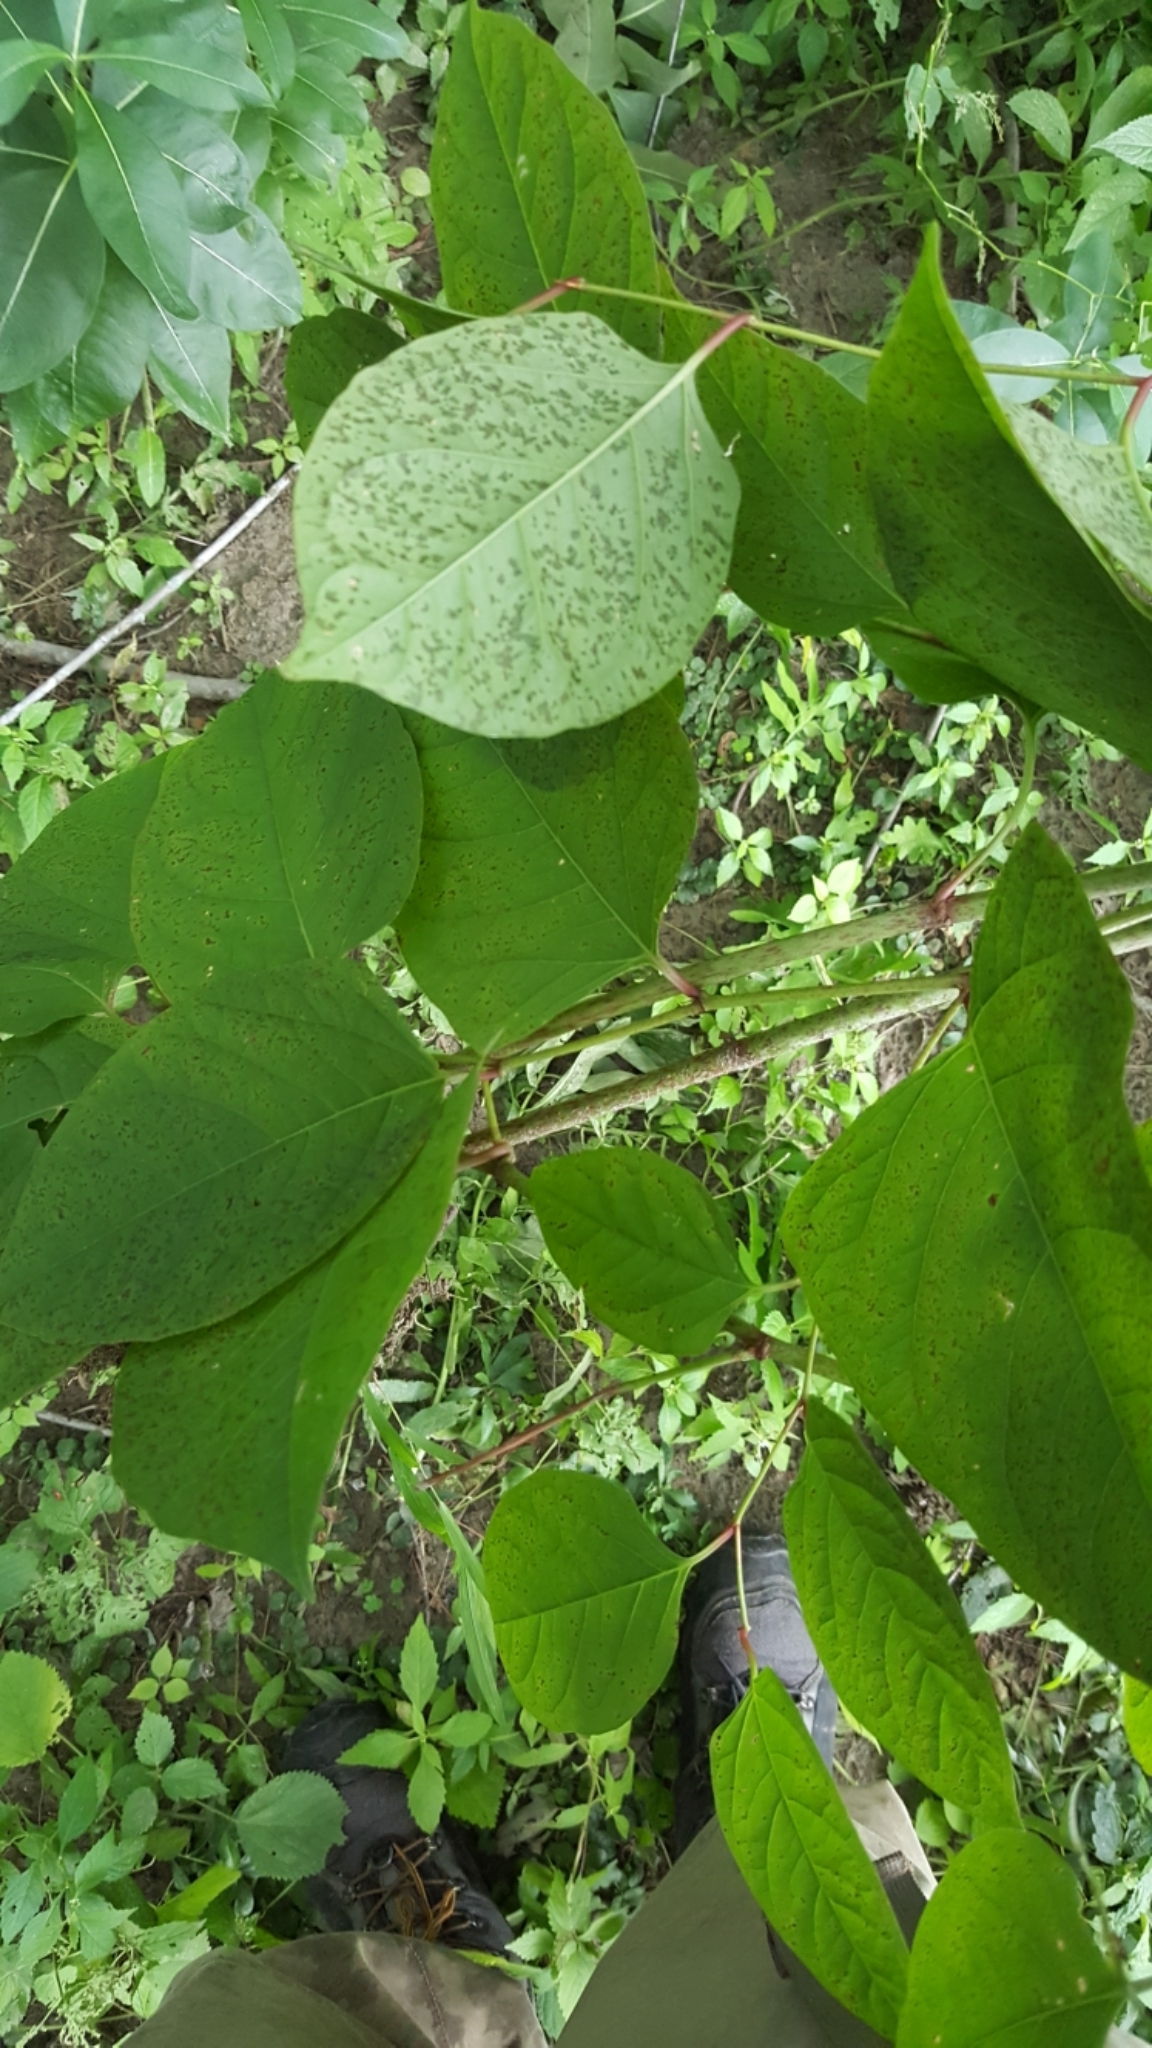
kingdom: Plantae
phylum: Tracheophyta
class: Magnoliopsida
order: Caryophyllales
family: Polygonaceae
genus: Reynoutria
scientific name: Reynoutria japonica
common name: Japanese knotweed
